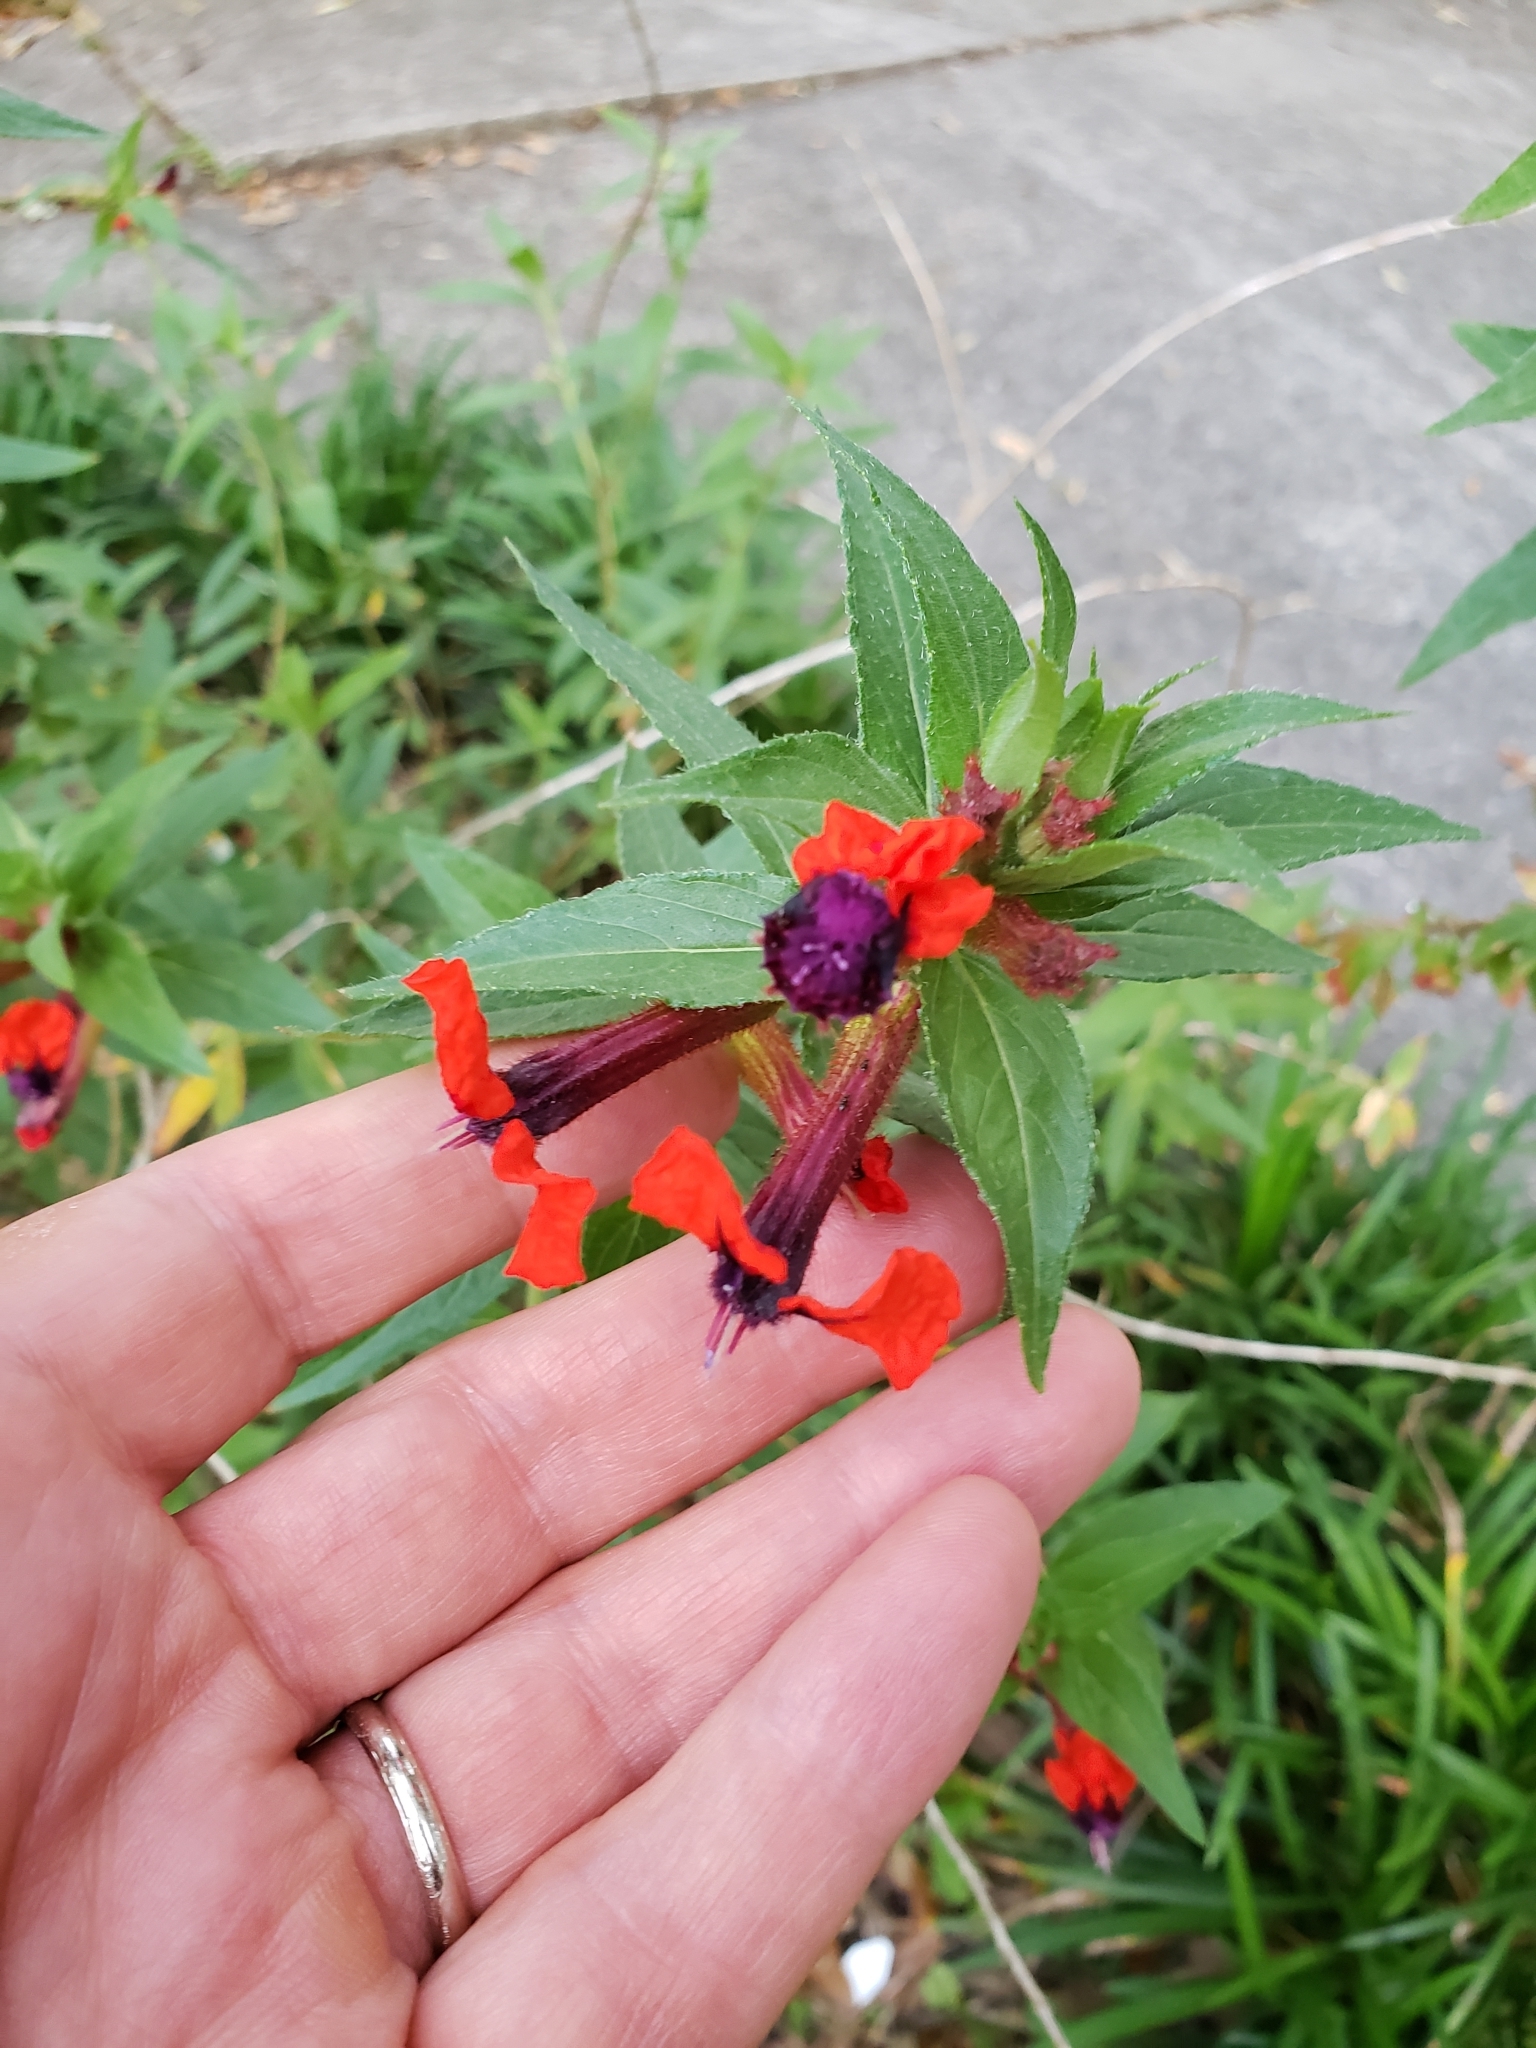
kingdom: Plantae
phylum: Tracheophyta
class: Magnoliopsida
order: Myrtales
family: Lythraceae
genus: Cuphea
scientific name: Cuphea llavea
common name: Tiny-mice
